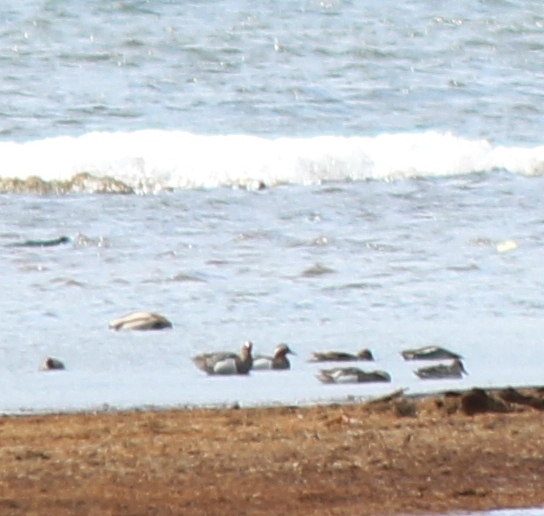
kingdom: Animalia
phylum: Chordata
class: Aves
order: Anseriformes
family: Anatidae
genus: Spatula
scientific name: Spatula querquedula
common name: Garganey
